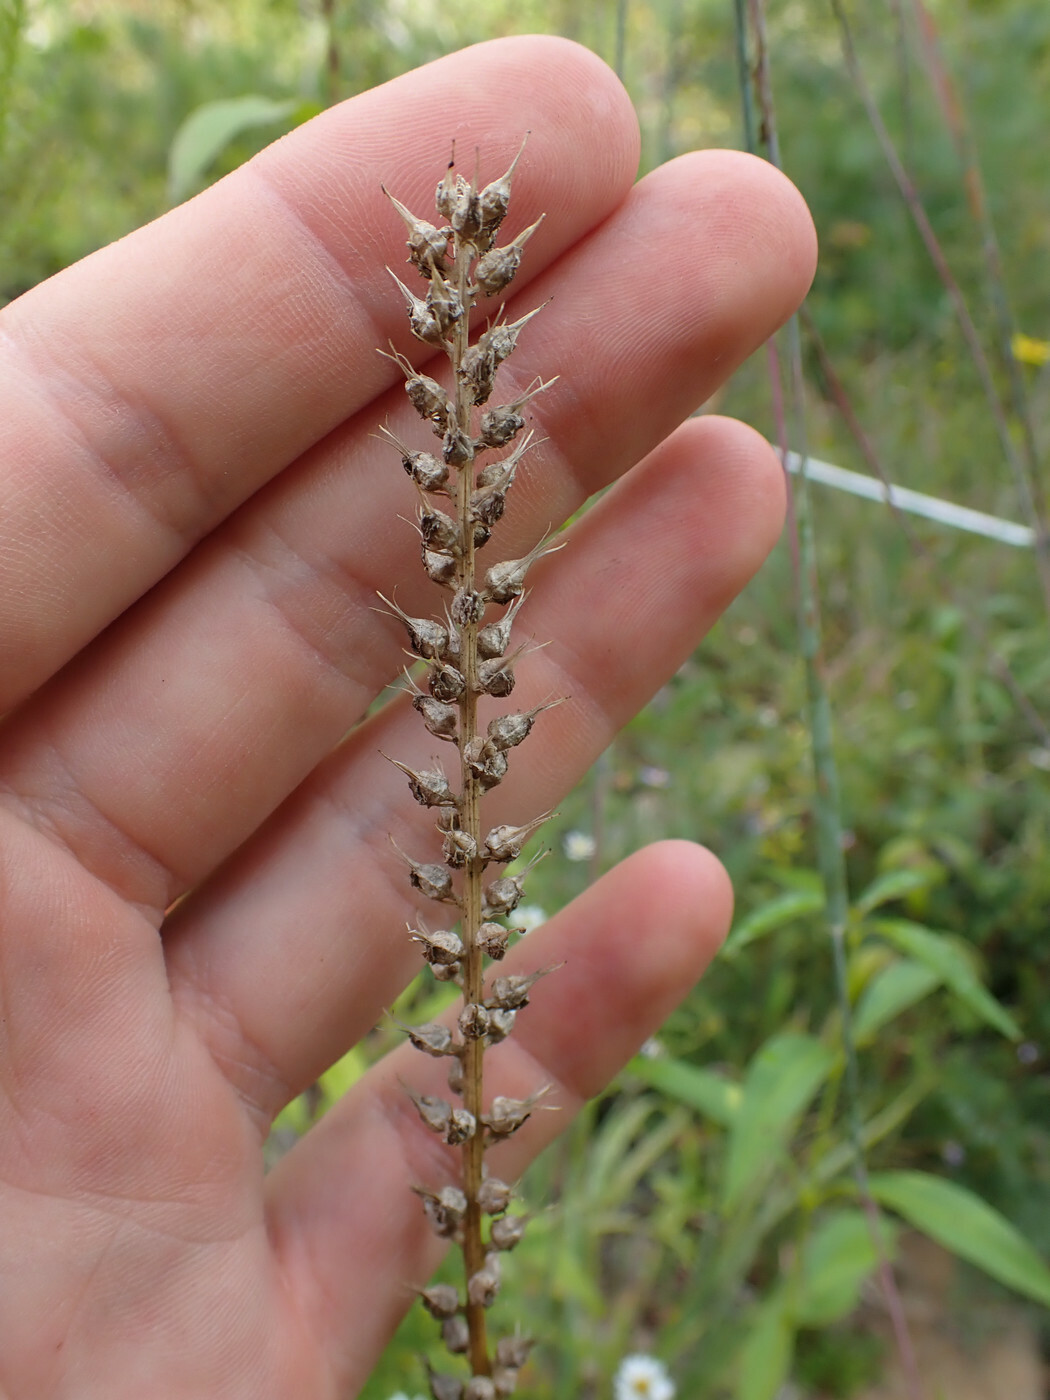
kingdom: Plantae
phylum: Tracheophyta
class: Liliopsida
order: Dioscoreales
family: Nartheciaceae
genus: Aletris
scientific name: Aletris farinosa
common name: Colicroot
